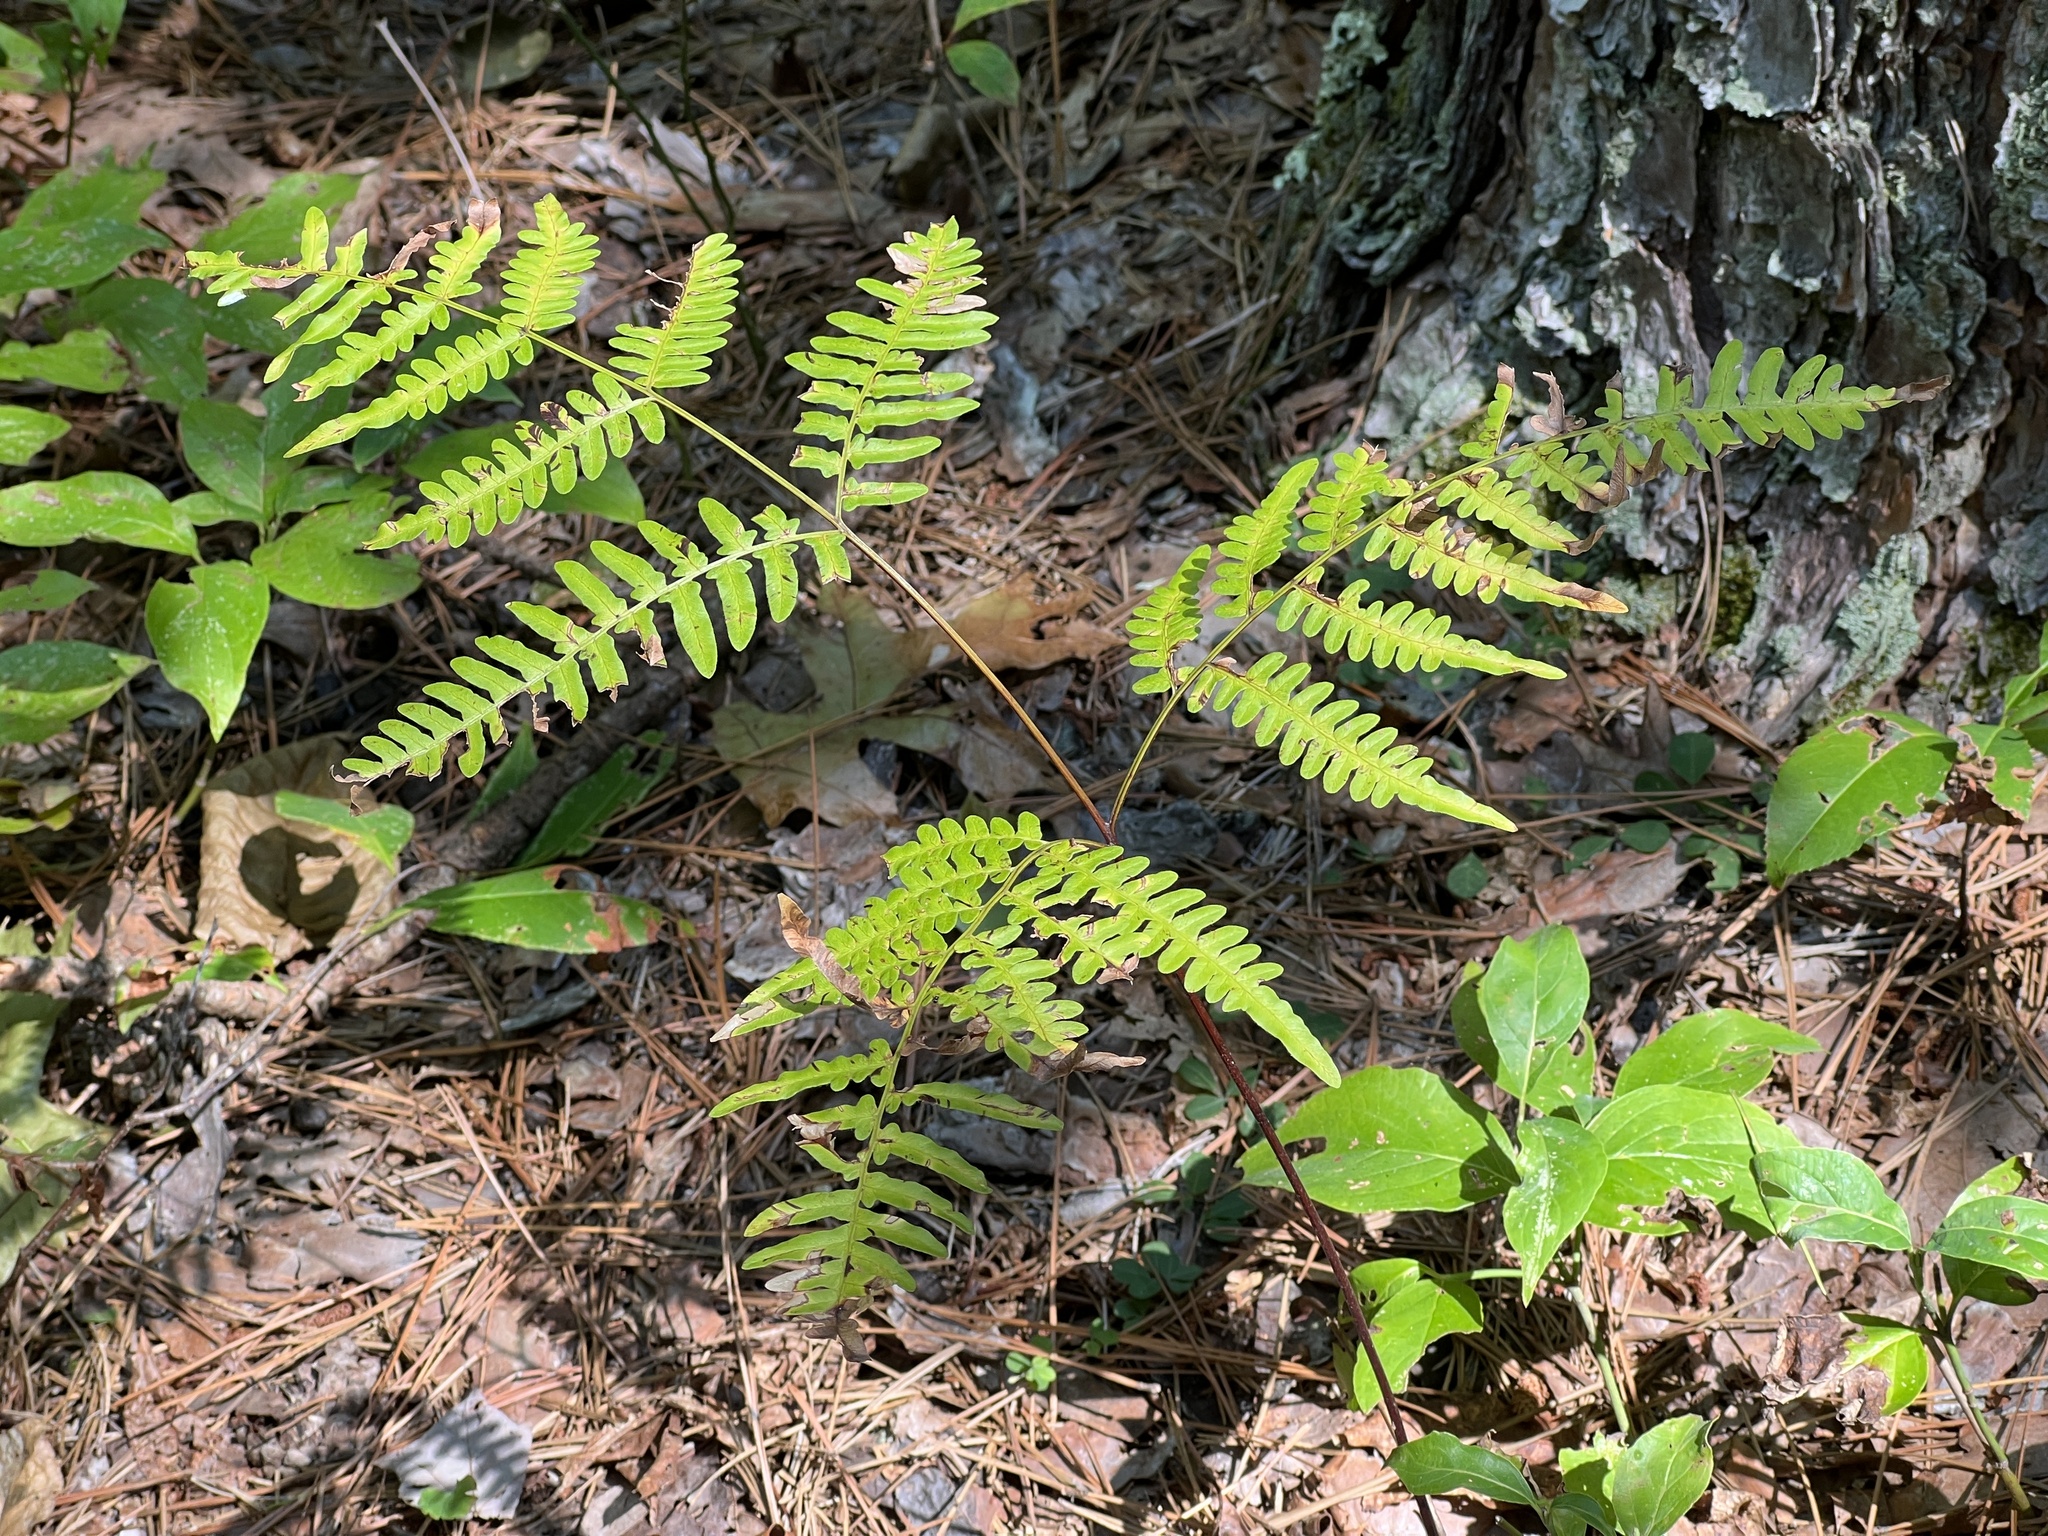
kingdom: Plantae
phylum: Tracheophyta
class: Polypodiopsida
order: Polypodiales
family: Dennstaedtiaceae
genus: Pteridium
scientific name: Pteridium aquilinum
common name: Bracken
